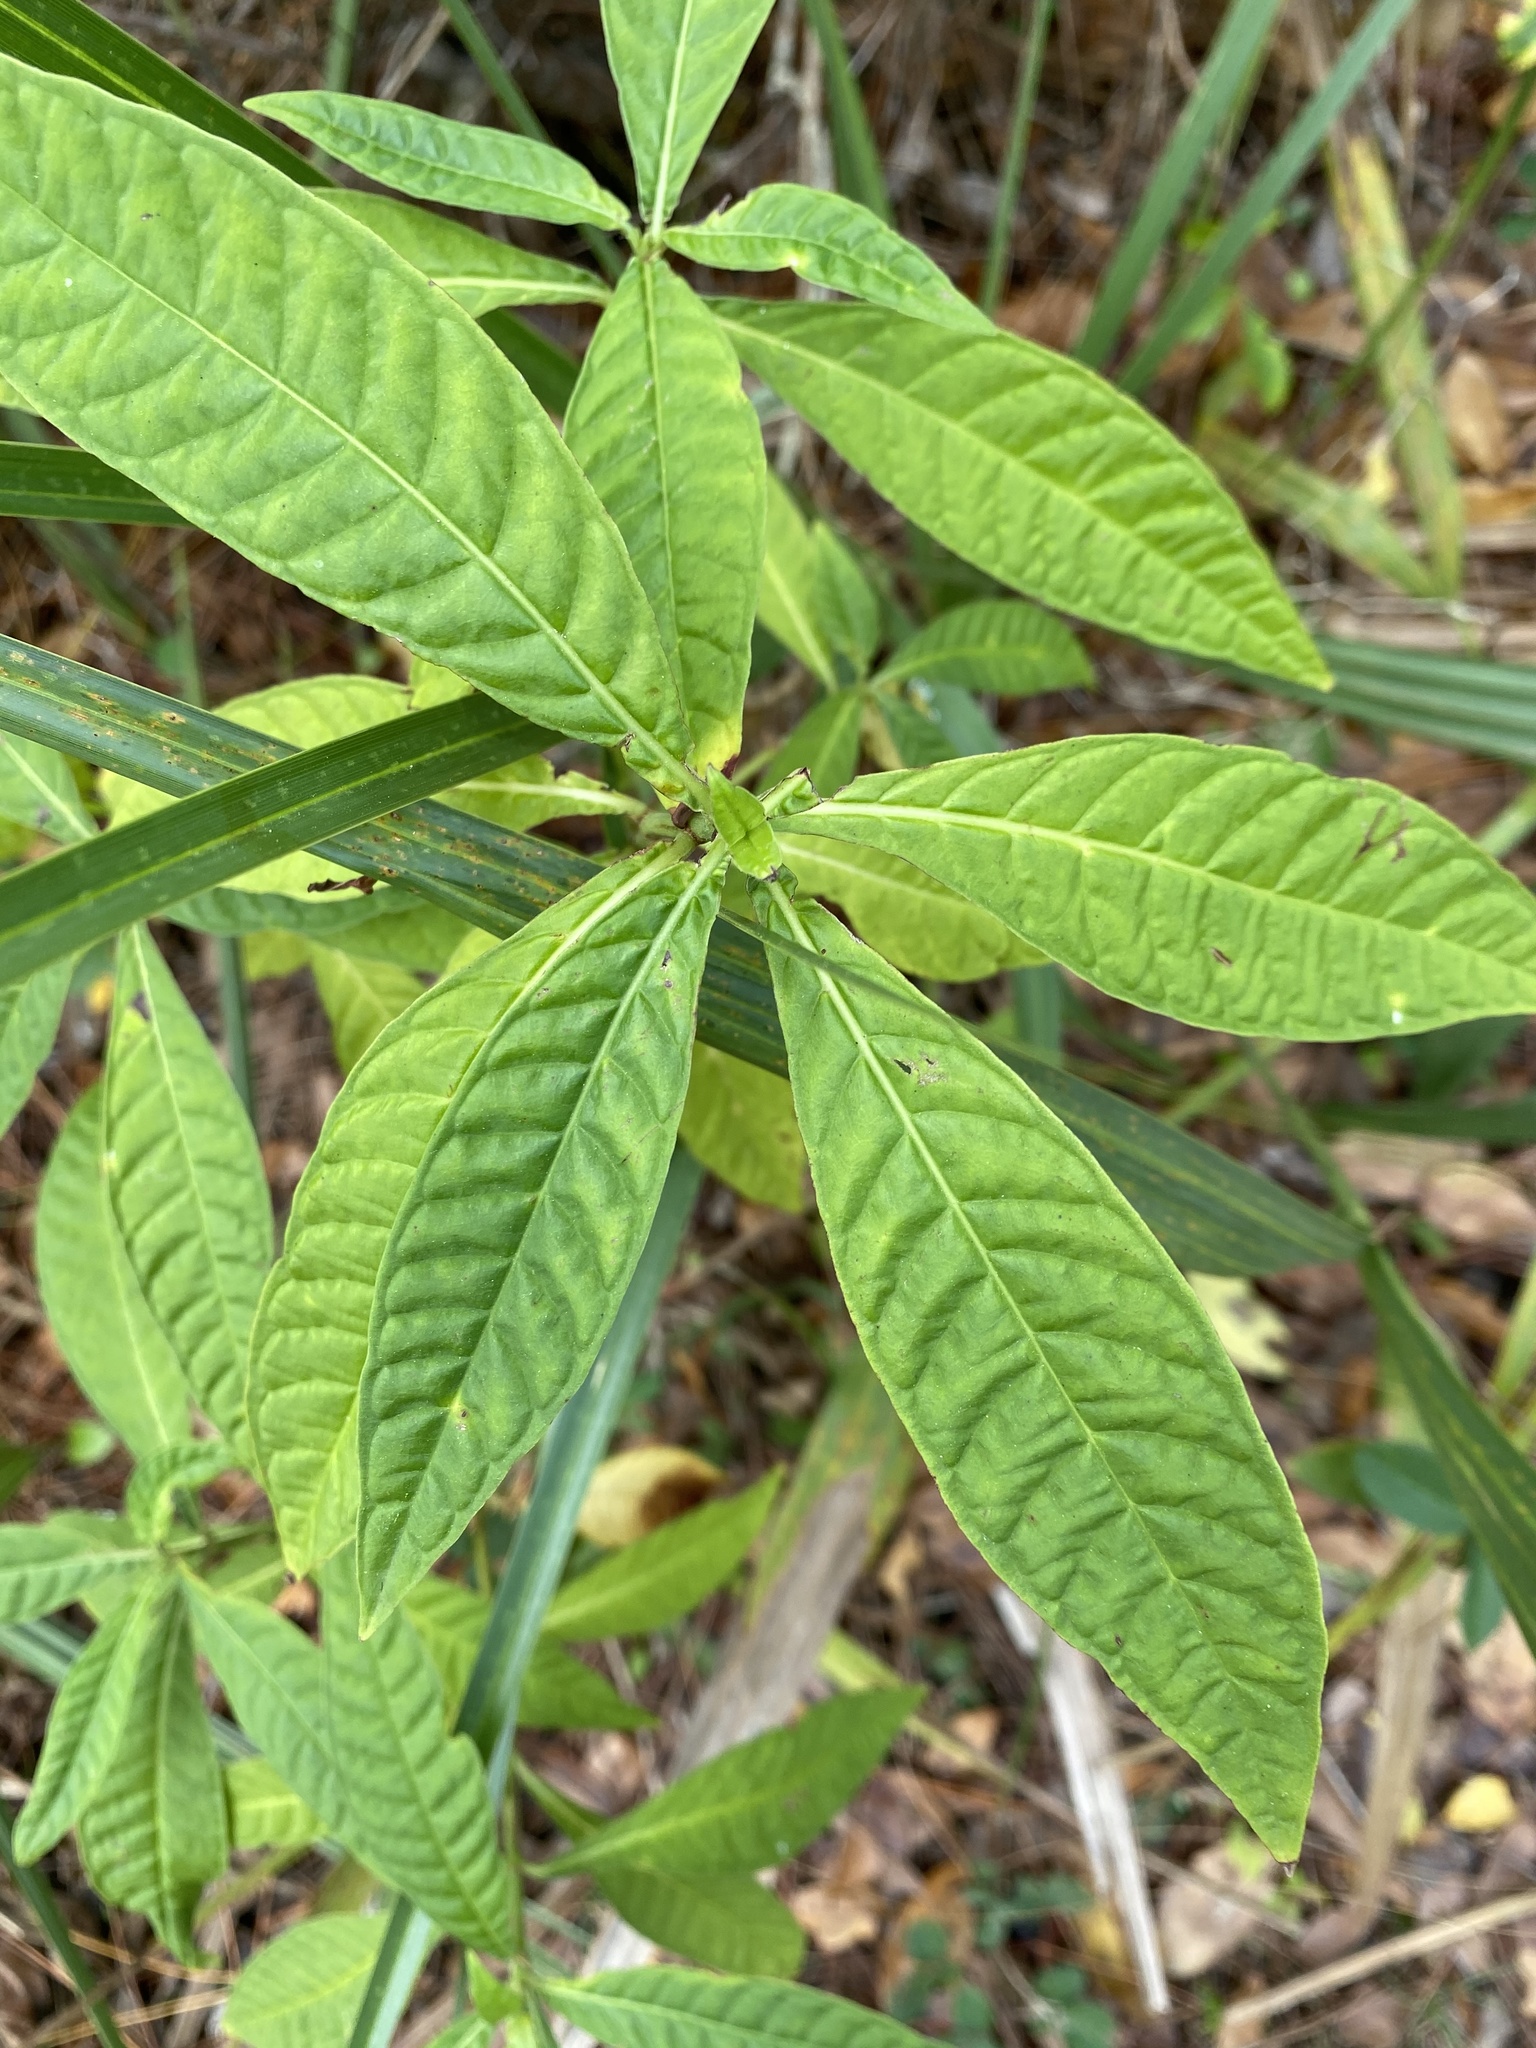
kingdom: Plantae
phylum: Tracheophyta
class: Magnoliopsida
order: Gentianales
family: Rubiaceae
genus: Psychotria
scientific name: Psychotria tenuifolia
